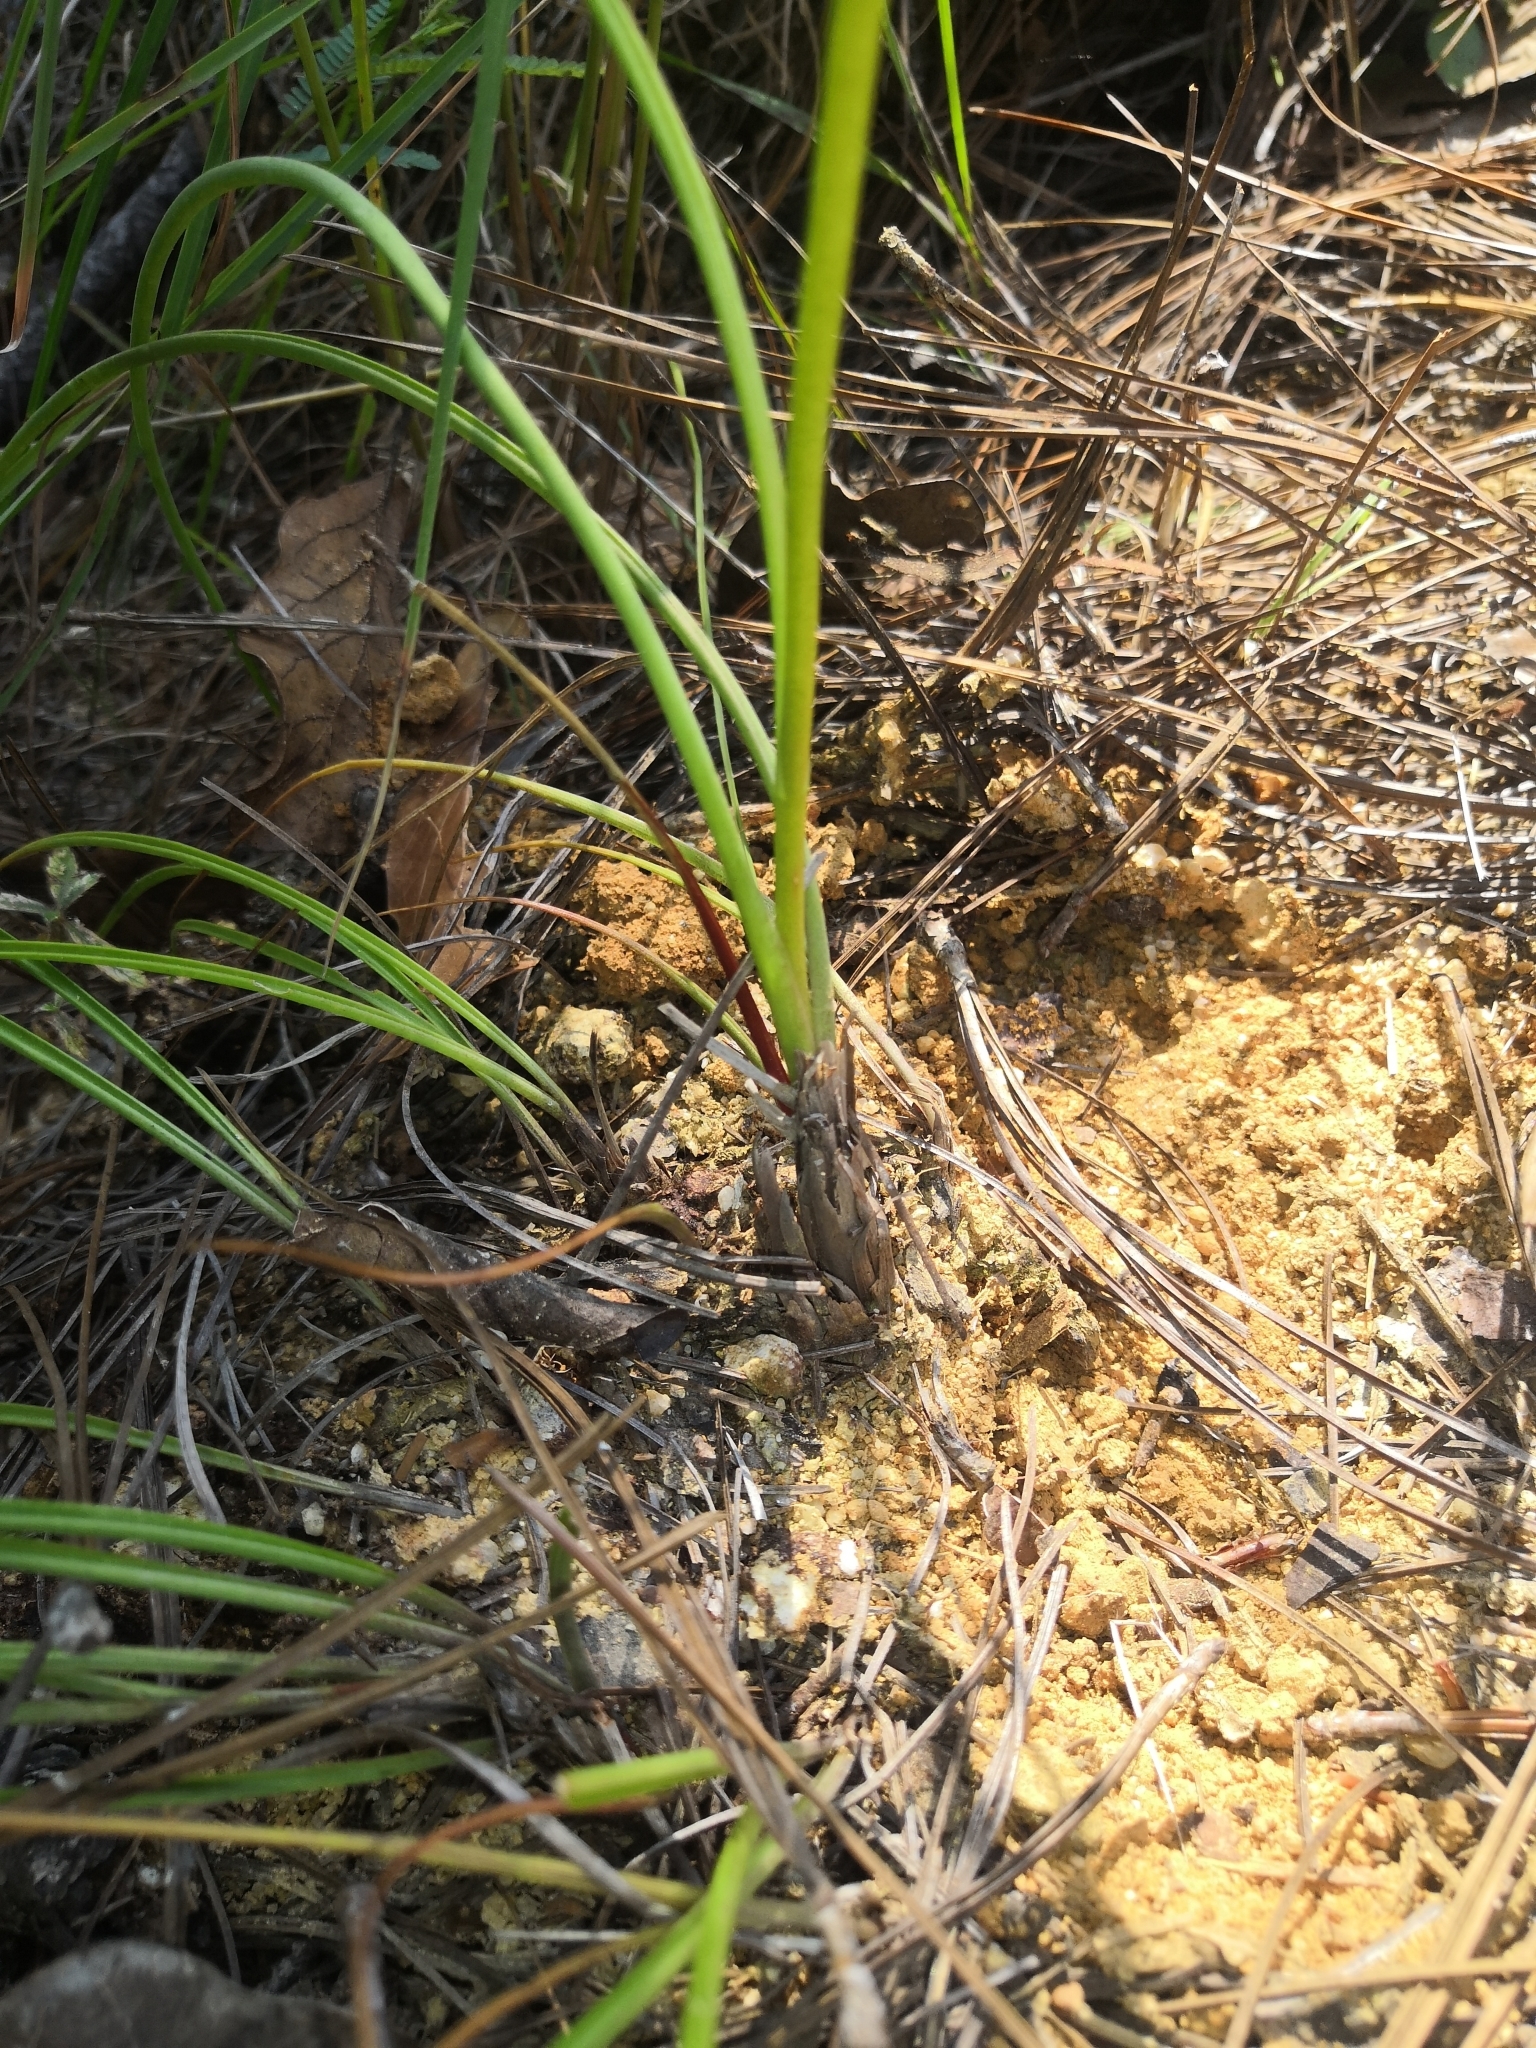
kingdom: Plantae
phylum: Tracheophyta
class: Liliopsida
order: Asparagales
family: Asparagaceae
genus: Agave
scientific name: Agave santana-michelii
